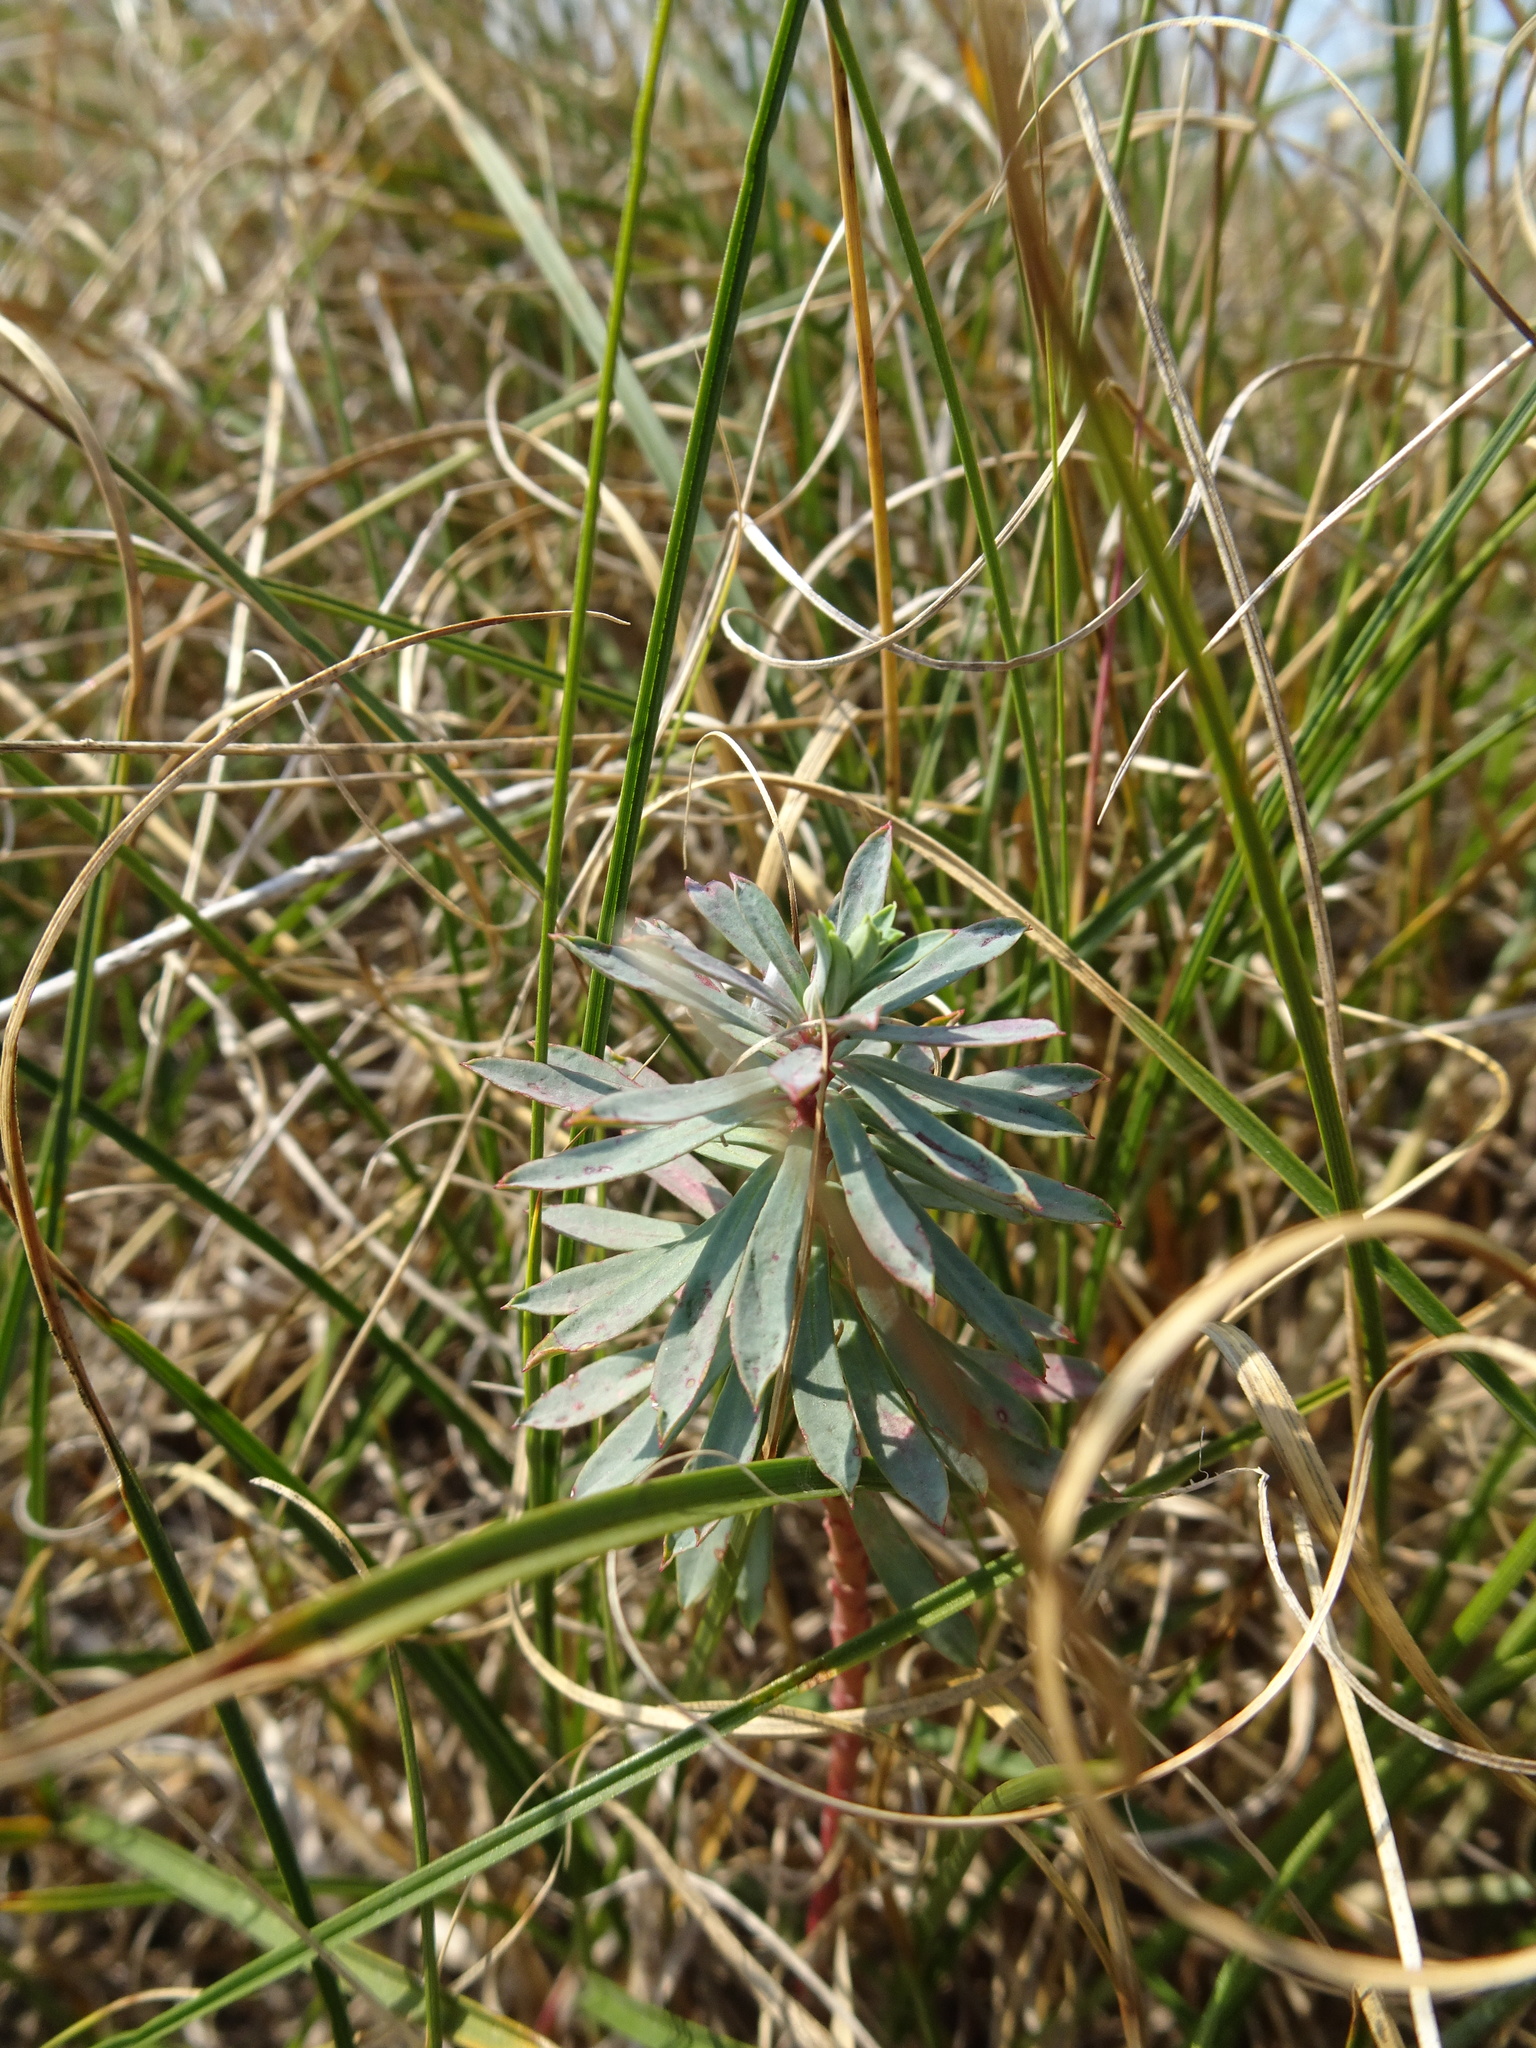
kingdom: Plantae
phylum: Tracheophyta
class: Magnoliopsida
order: Malpighiales
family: Euphorbiaceae
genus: Euphorbia
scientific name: Euphorbia portlandica
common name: Portland spurge
